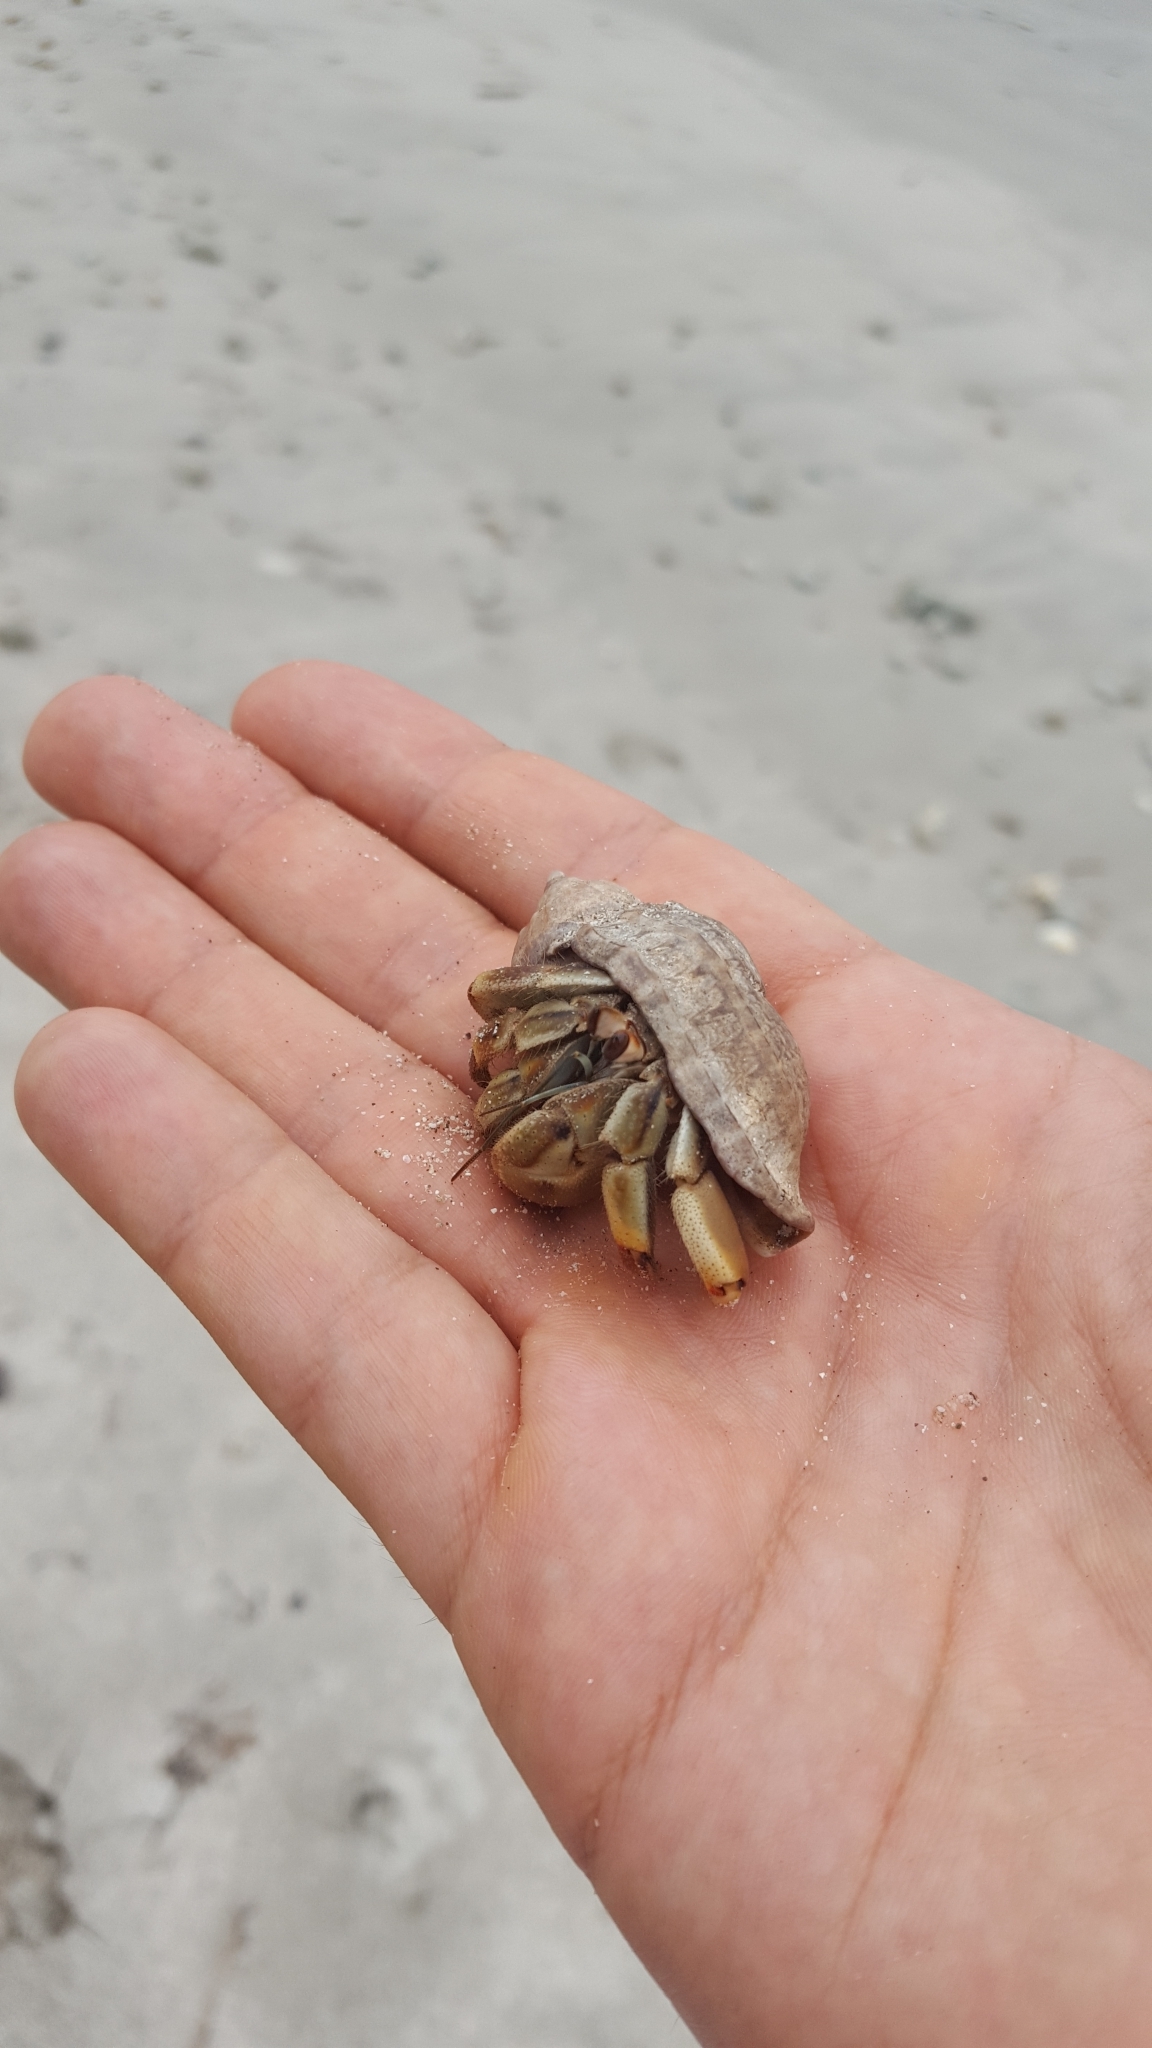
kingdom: Animalia
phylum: Arthropoda
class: Malacostraca
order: Decapoda
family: Coenobitidae
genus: Coenobita
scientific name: Coenobita compressus
